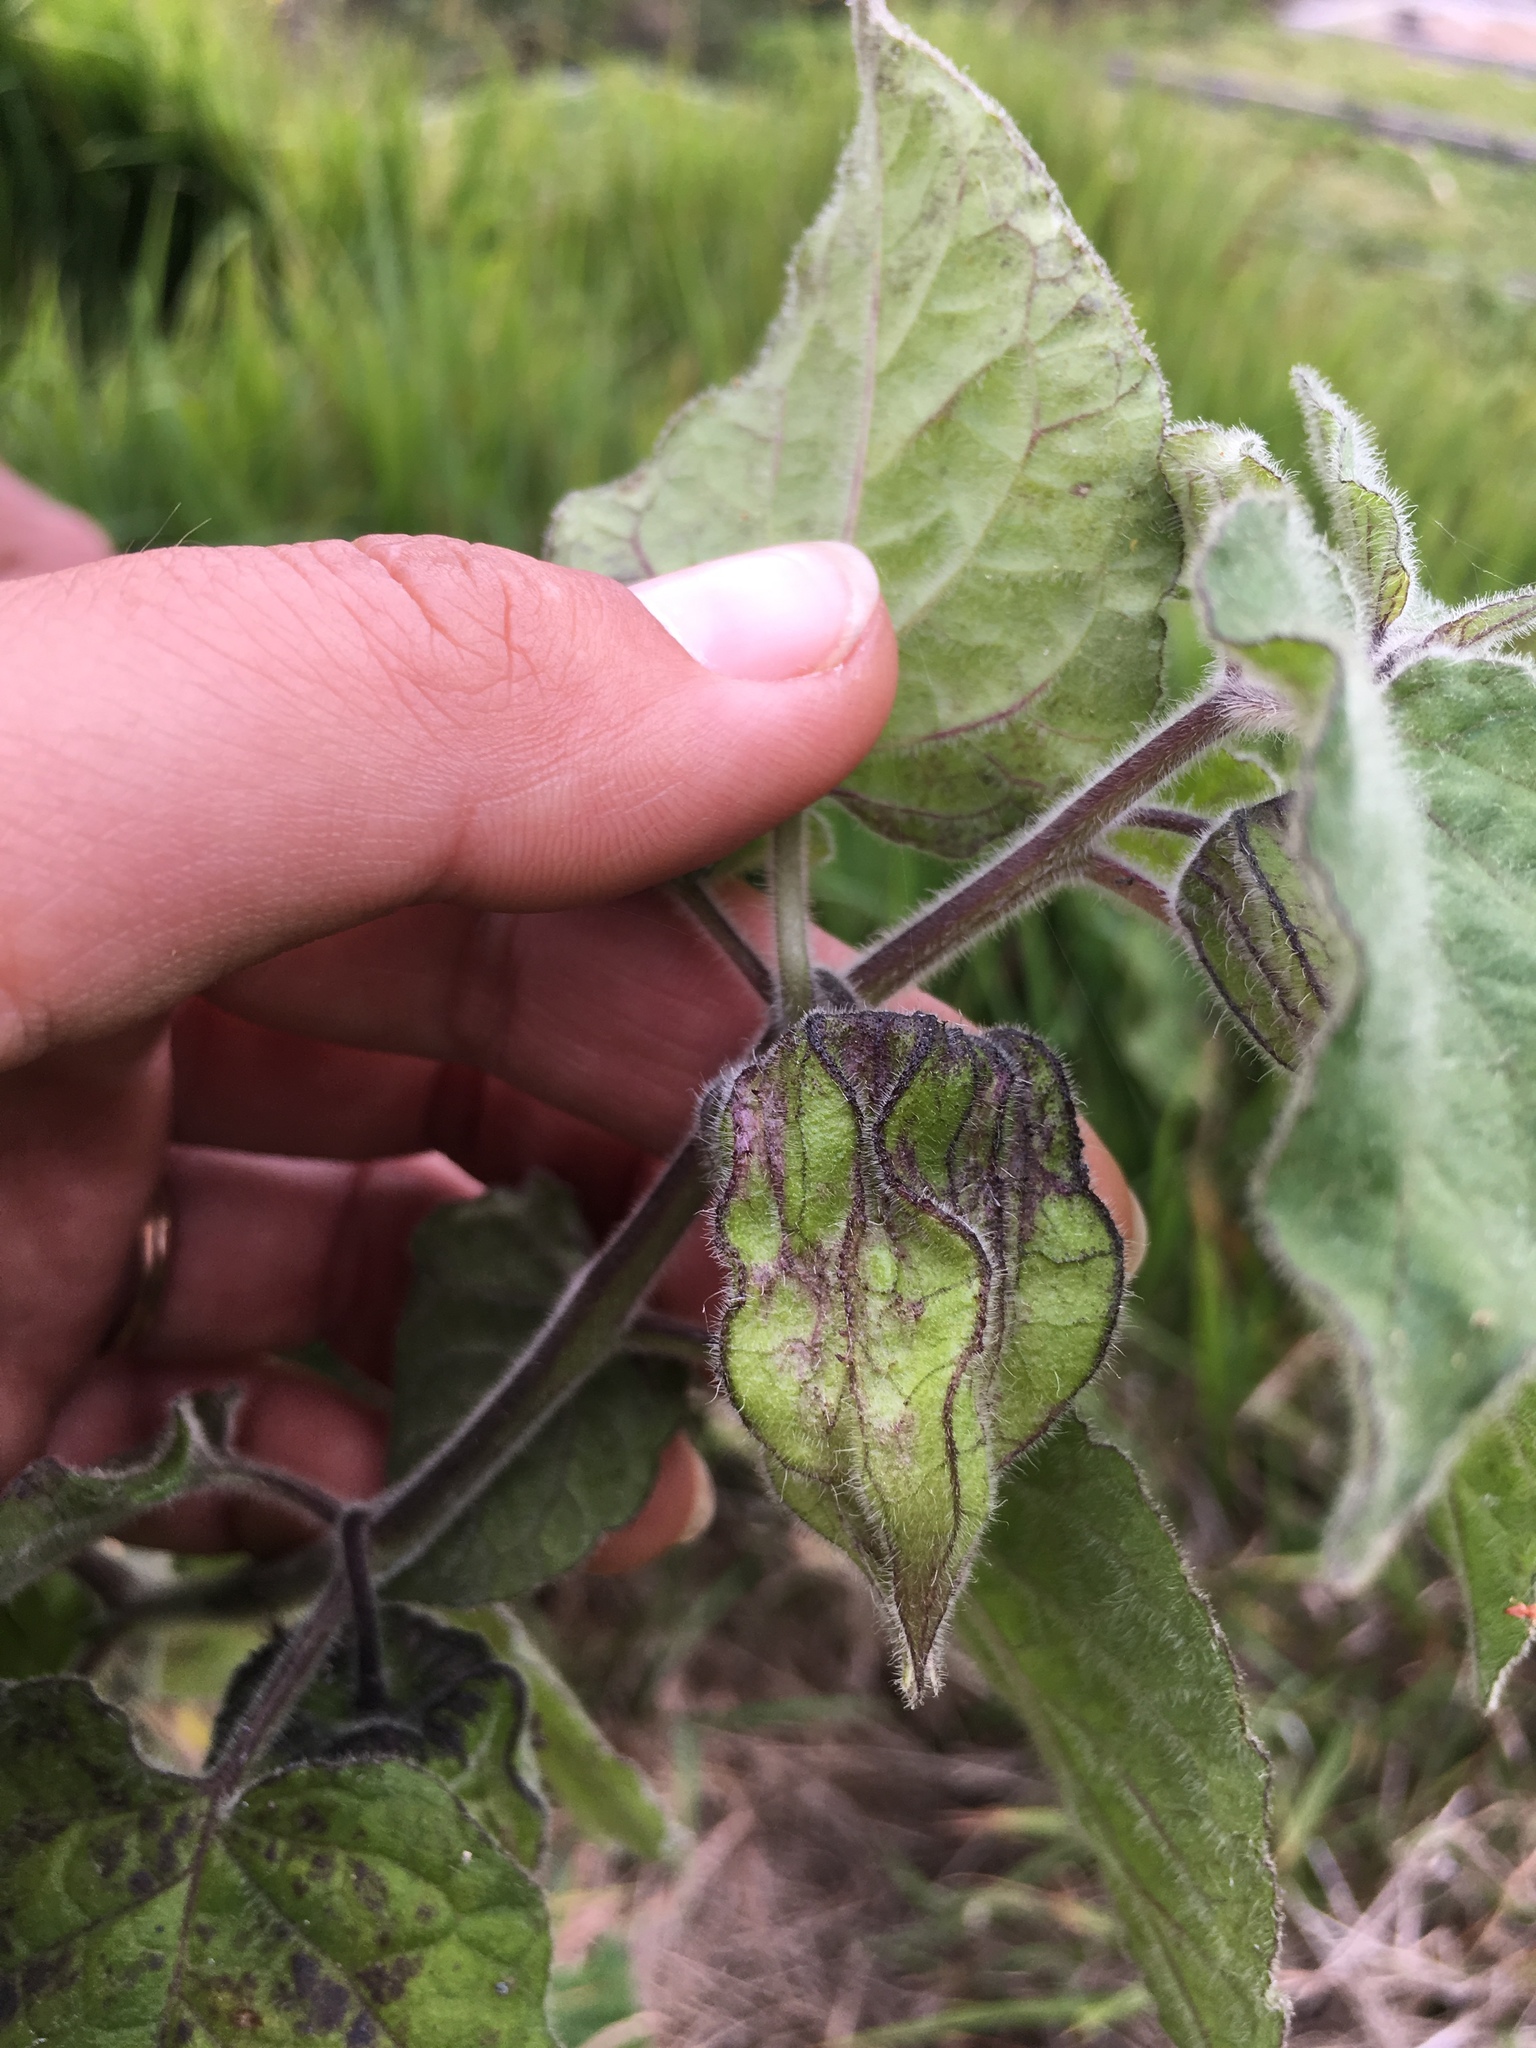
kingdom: Plantae
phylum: Tracheophyta
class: Magnoliopsida
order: Solanales
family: Solanaceae
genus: Physalis
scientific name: Physalis peruviana
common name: Cape-gooseberry
